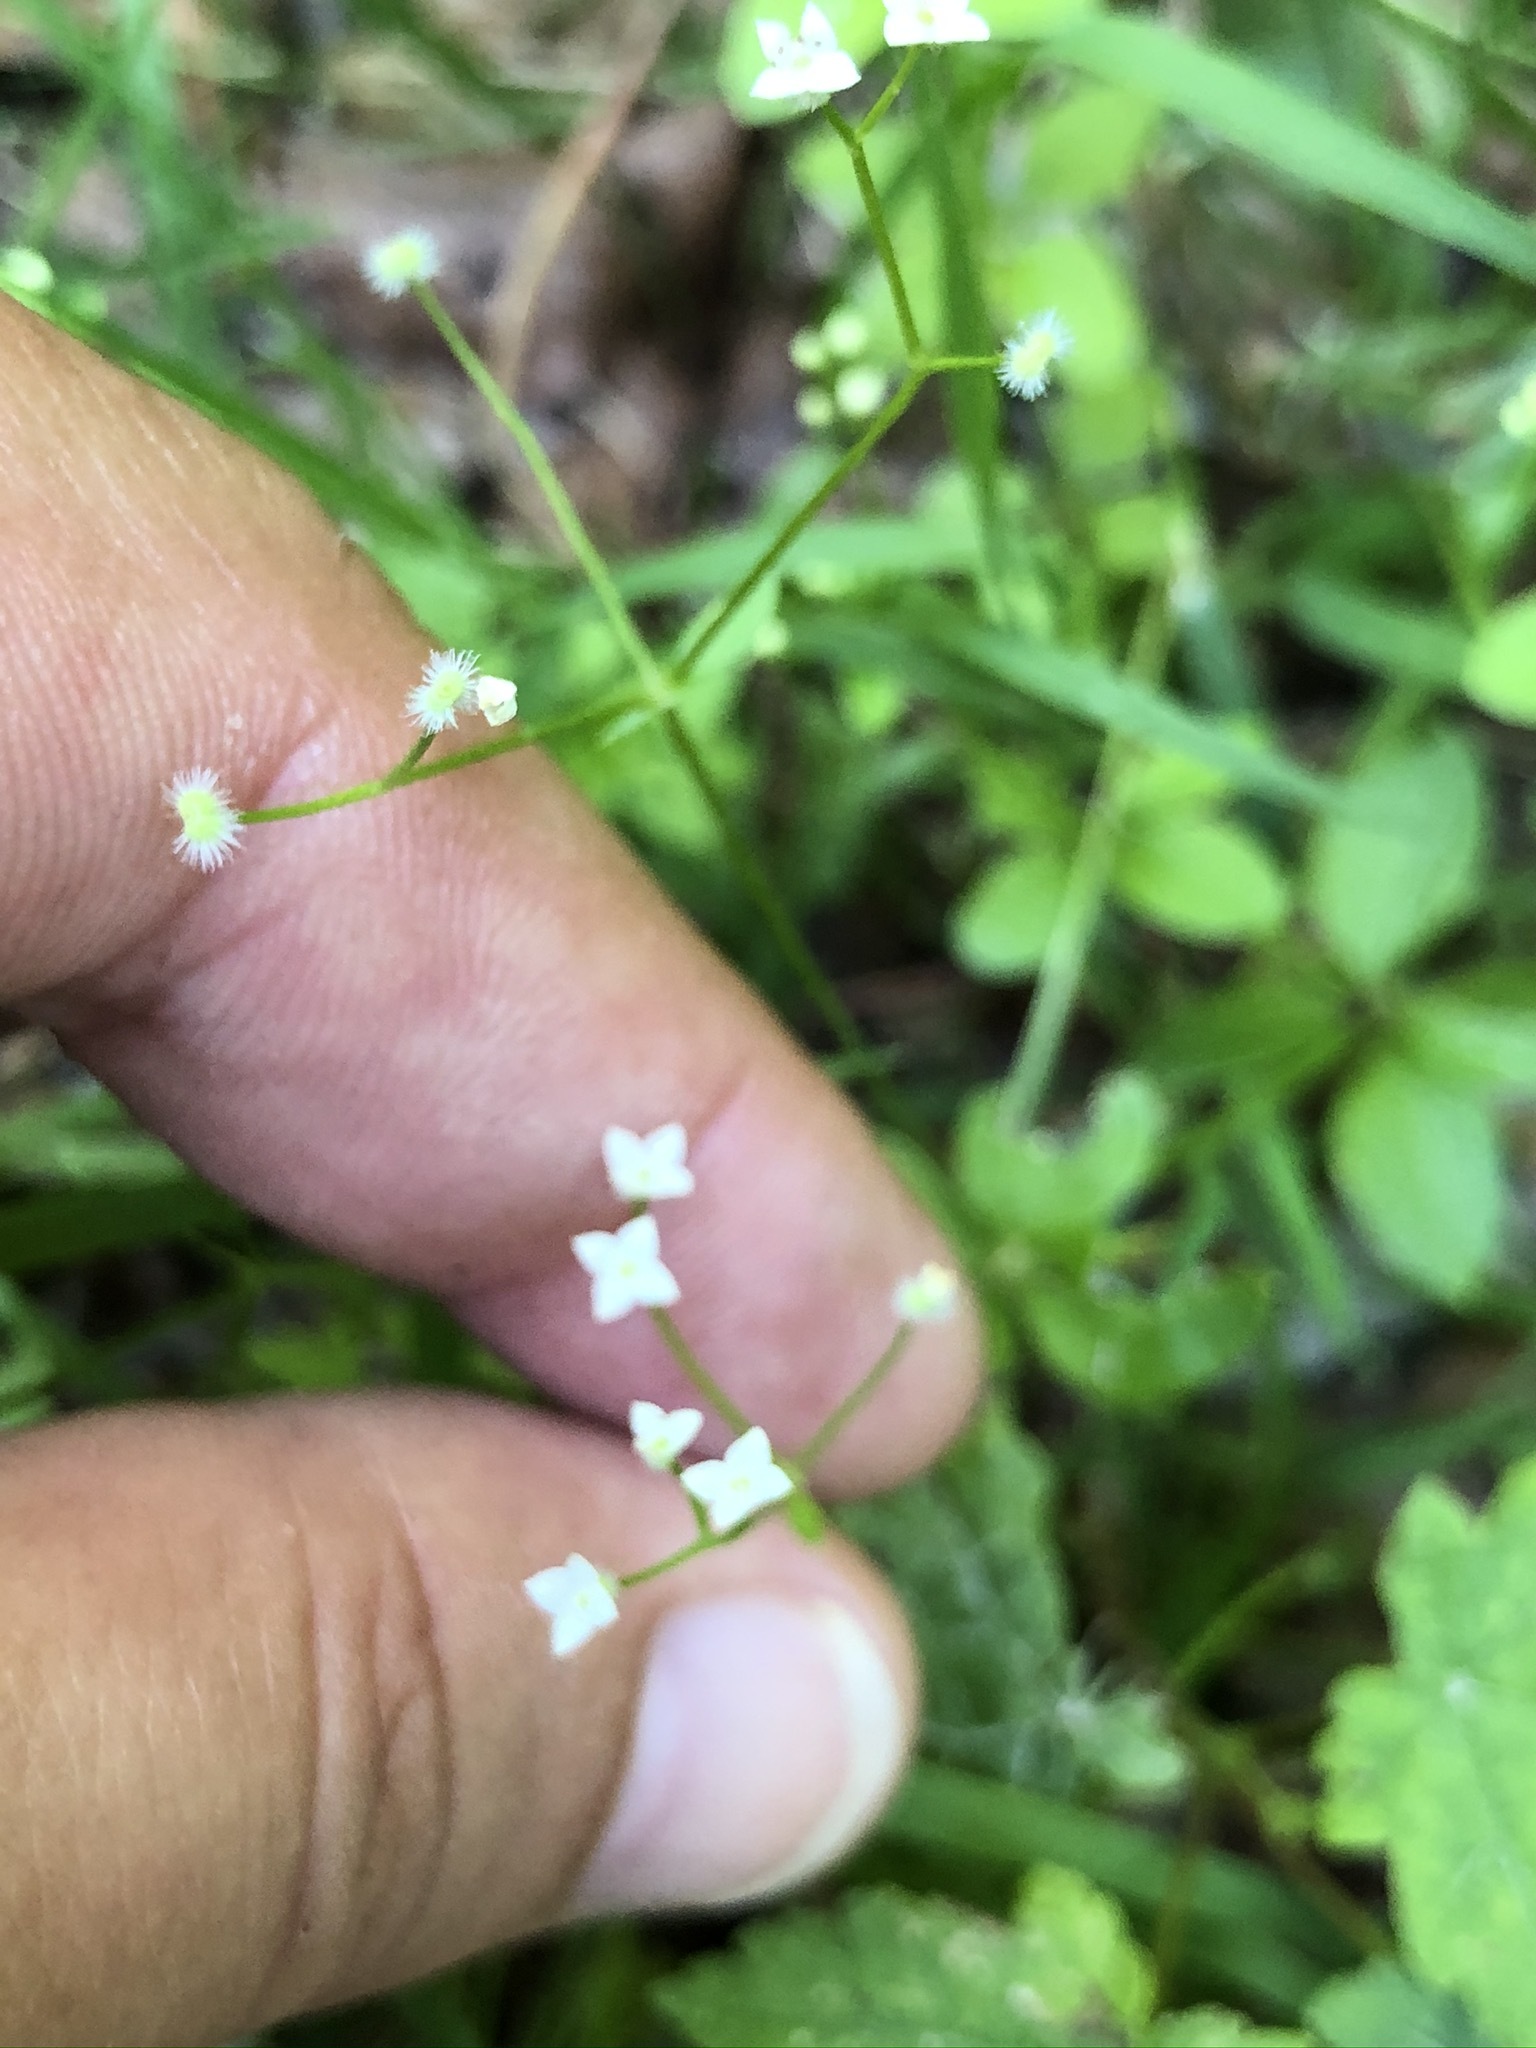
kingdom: Plantae
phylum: Tracheophyta
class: Magnoliopsida
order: Gentianales
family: Rubiaceae
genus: Galium
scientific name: Galium rotundifolium
